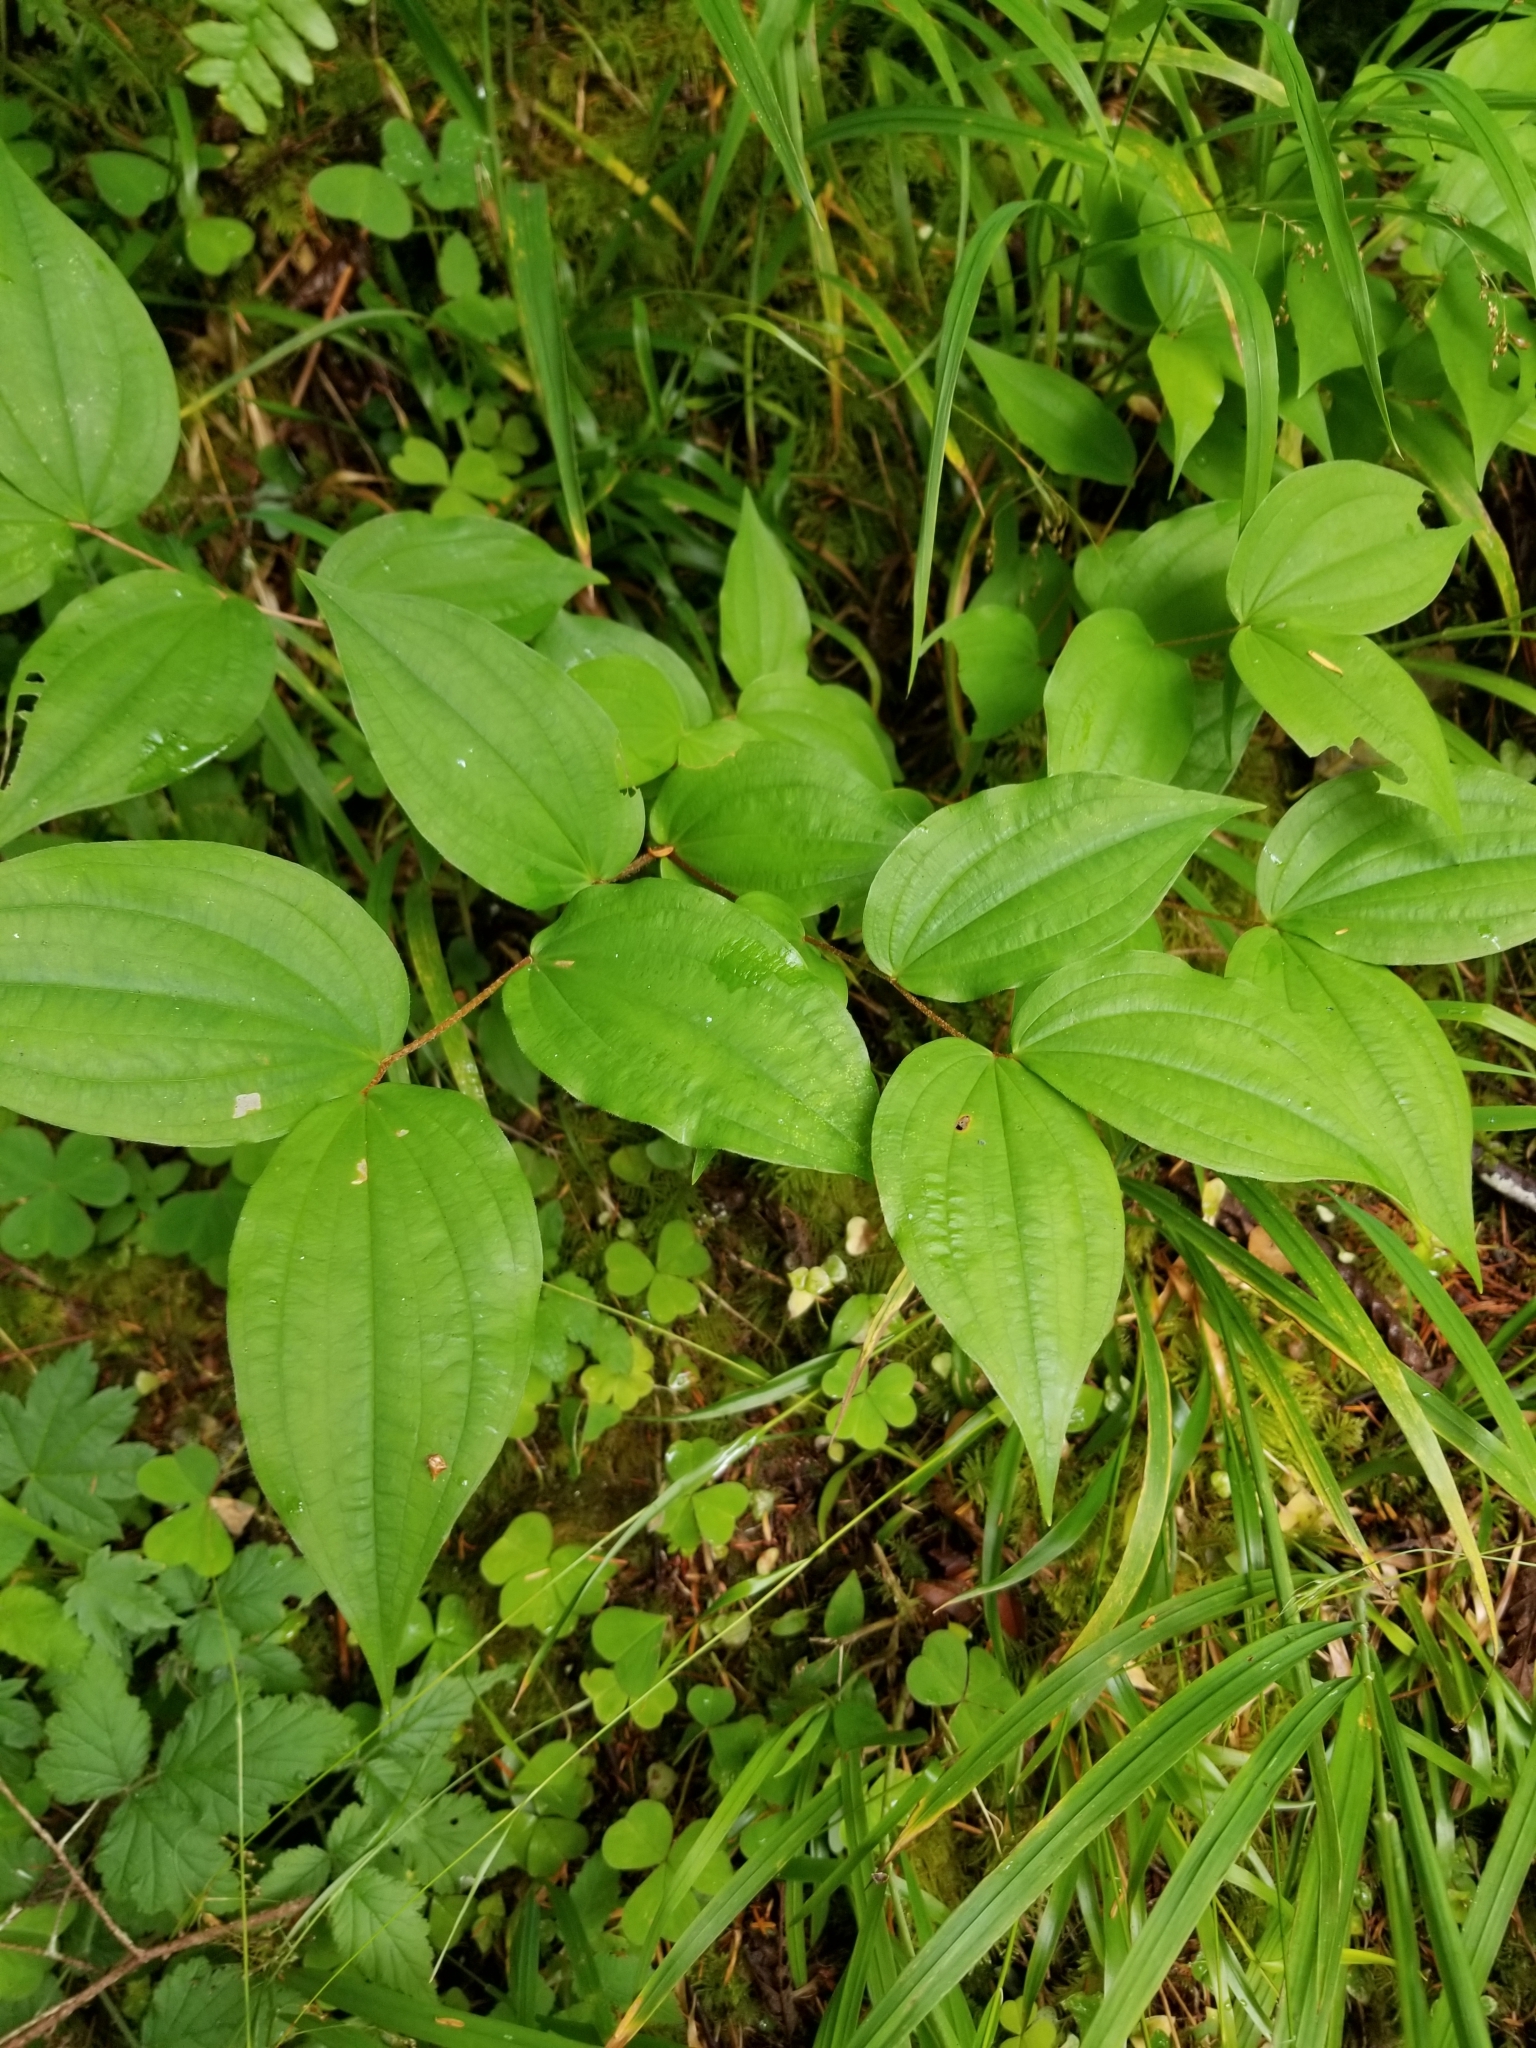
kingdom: Plantae
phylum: Tracheophyta
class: Liliopsida
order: Liliales
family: Liliaceae
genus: Prosartes
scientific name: Prosartes smithii
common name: Fairy-lantern
